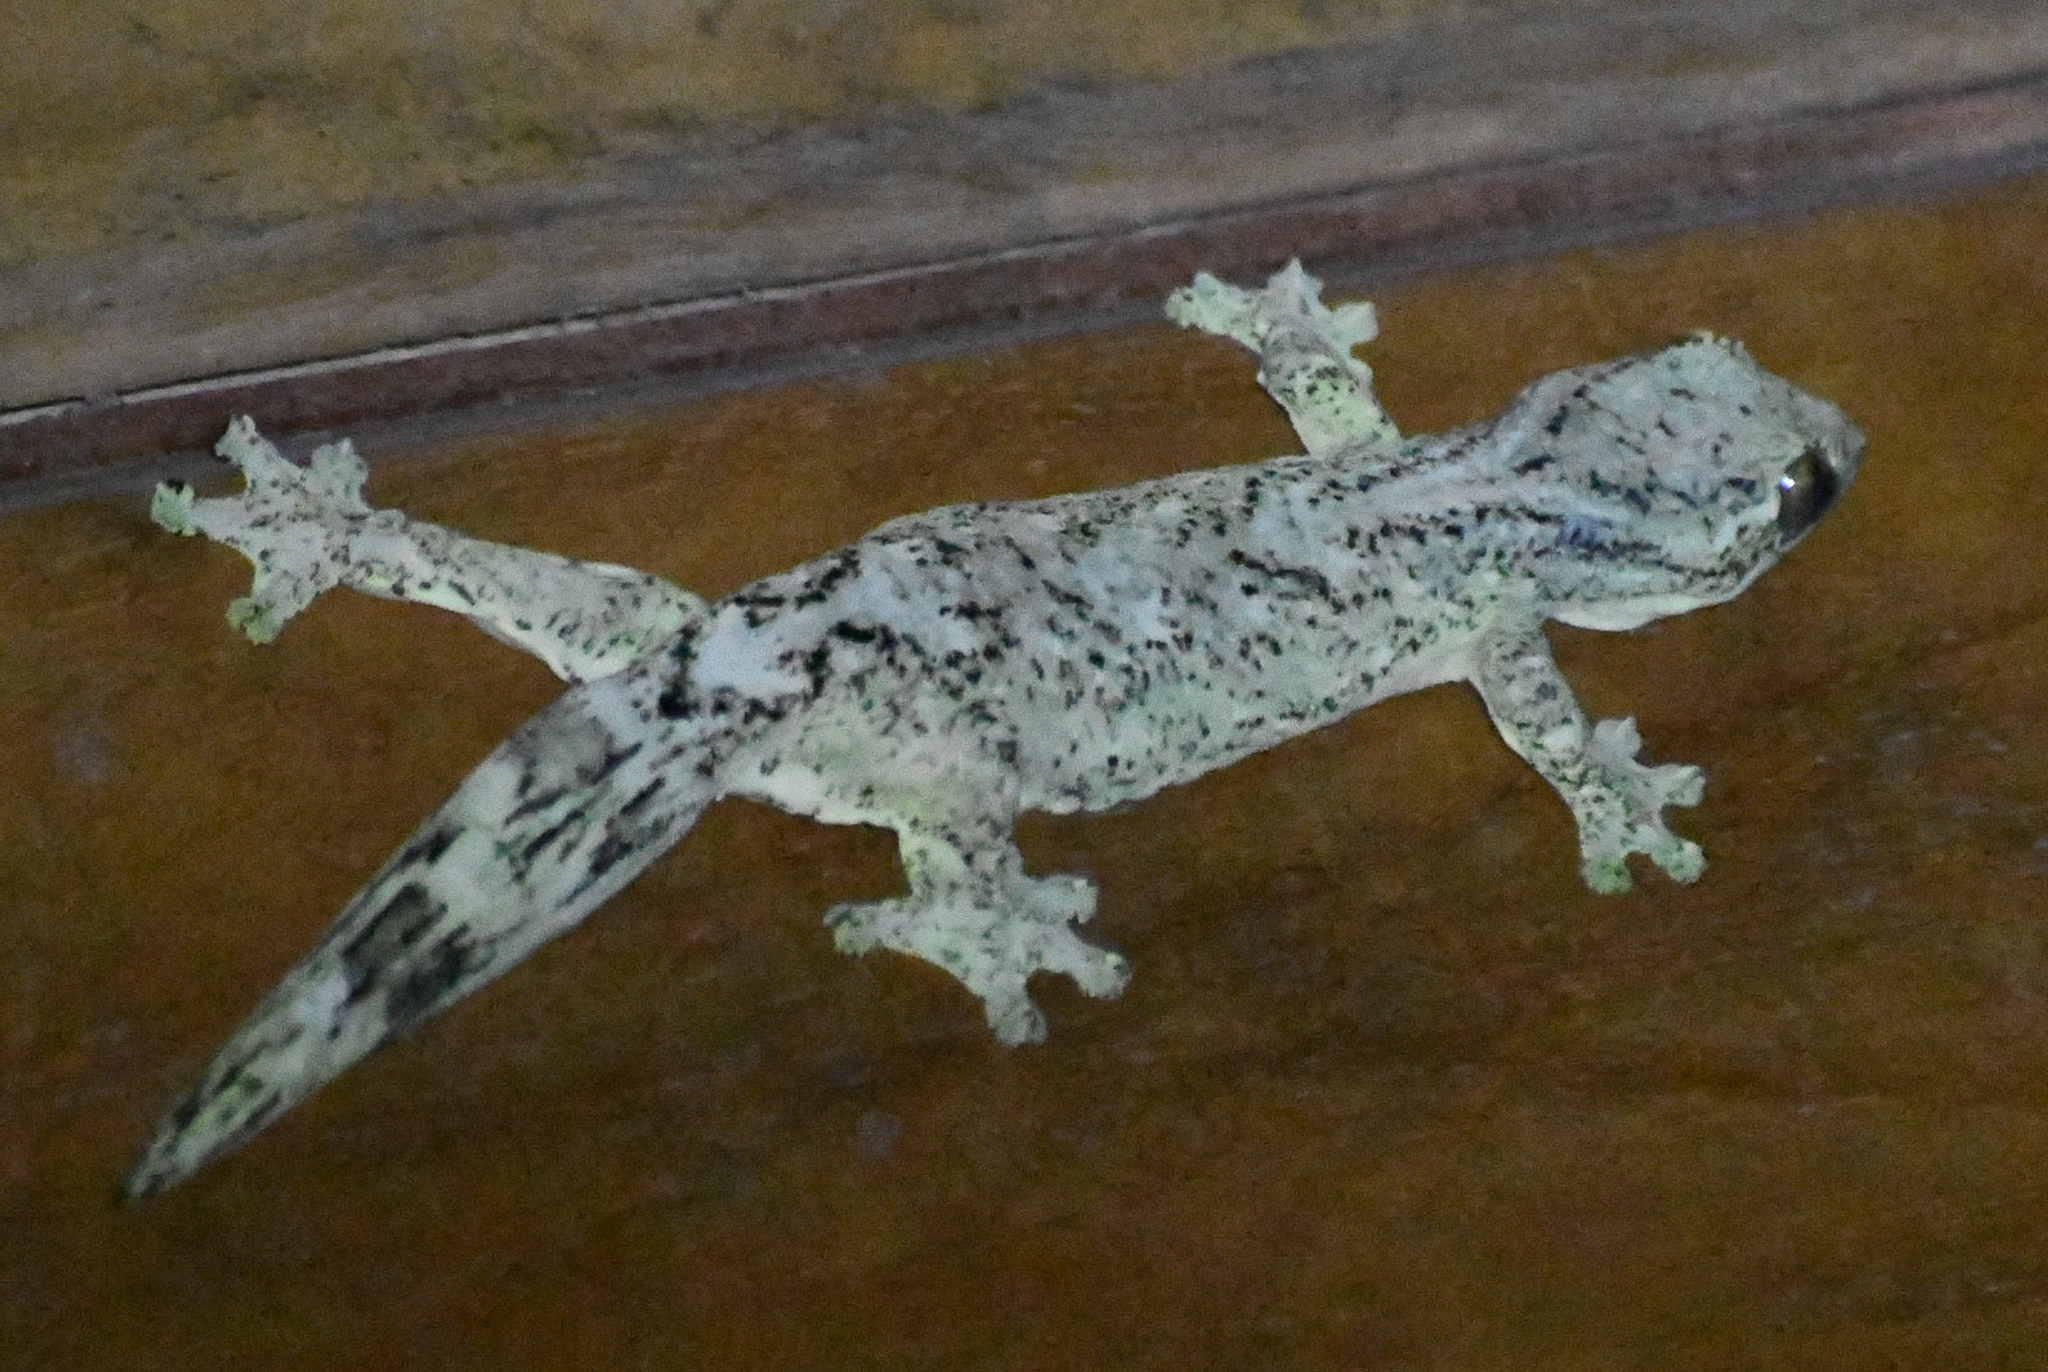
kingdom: Animalia
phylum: Chordata
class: Squamata
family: Phyllodactylidae
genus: Thecadactylus
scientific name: Thecadactylus solimoensis
